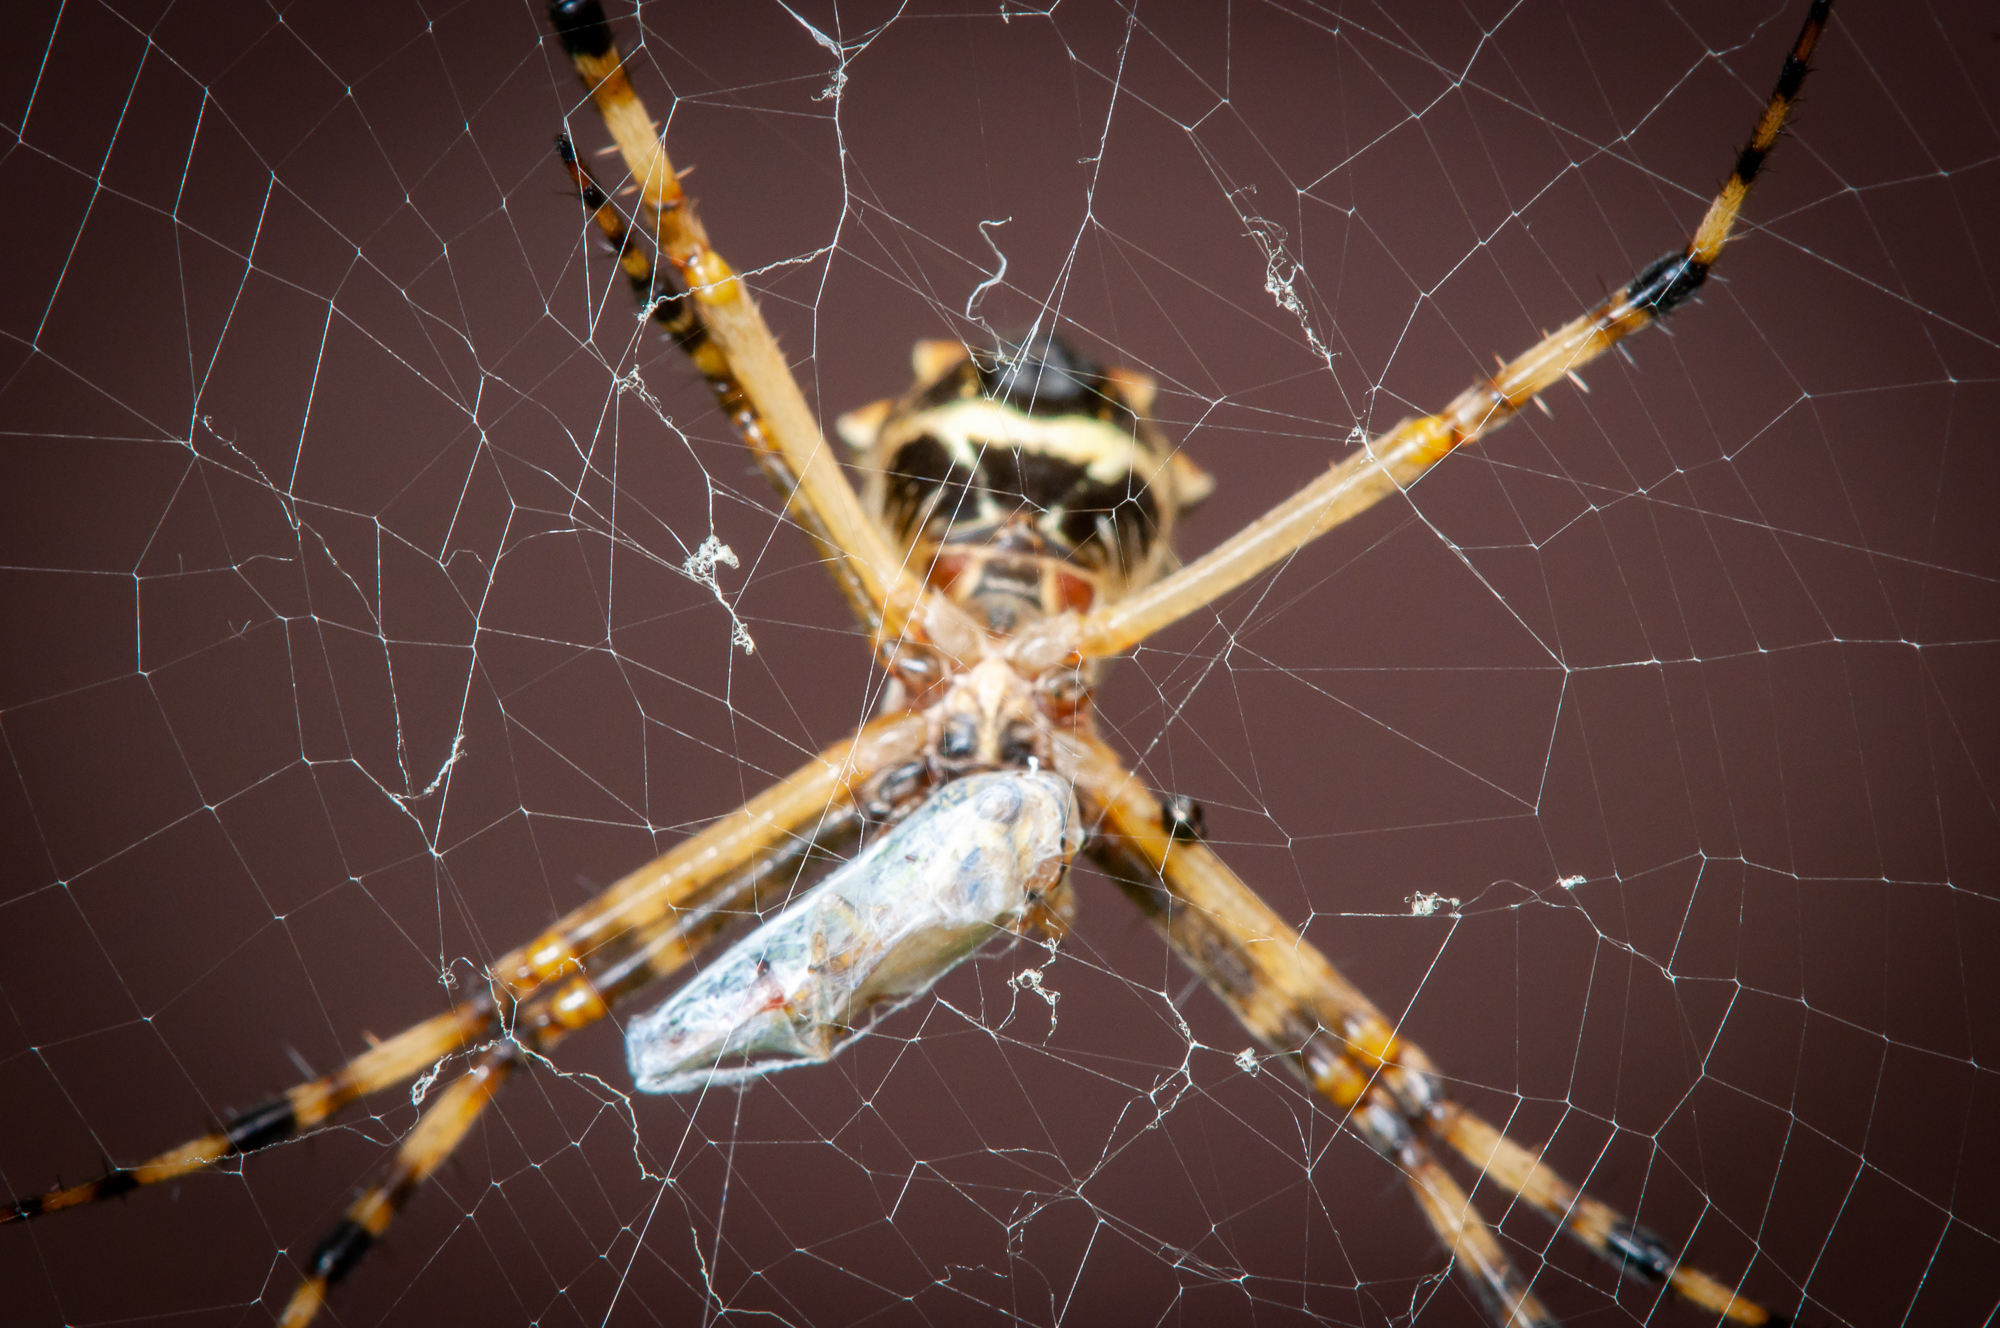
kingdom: Animalia
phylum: Arthropoda
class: Arachnida
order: Araneae
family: Araneidae
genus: Argiope
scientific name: Argiope argentata
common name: Orb weavers
